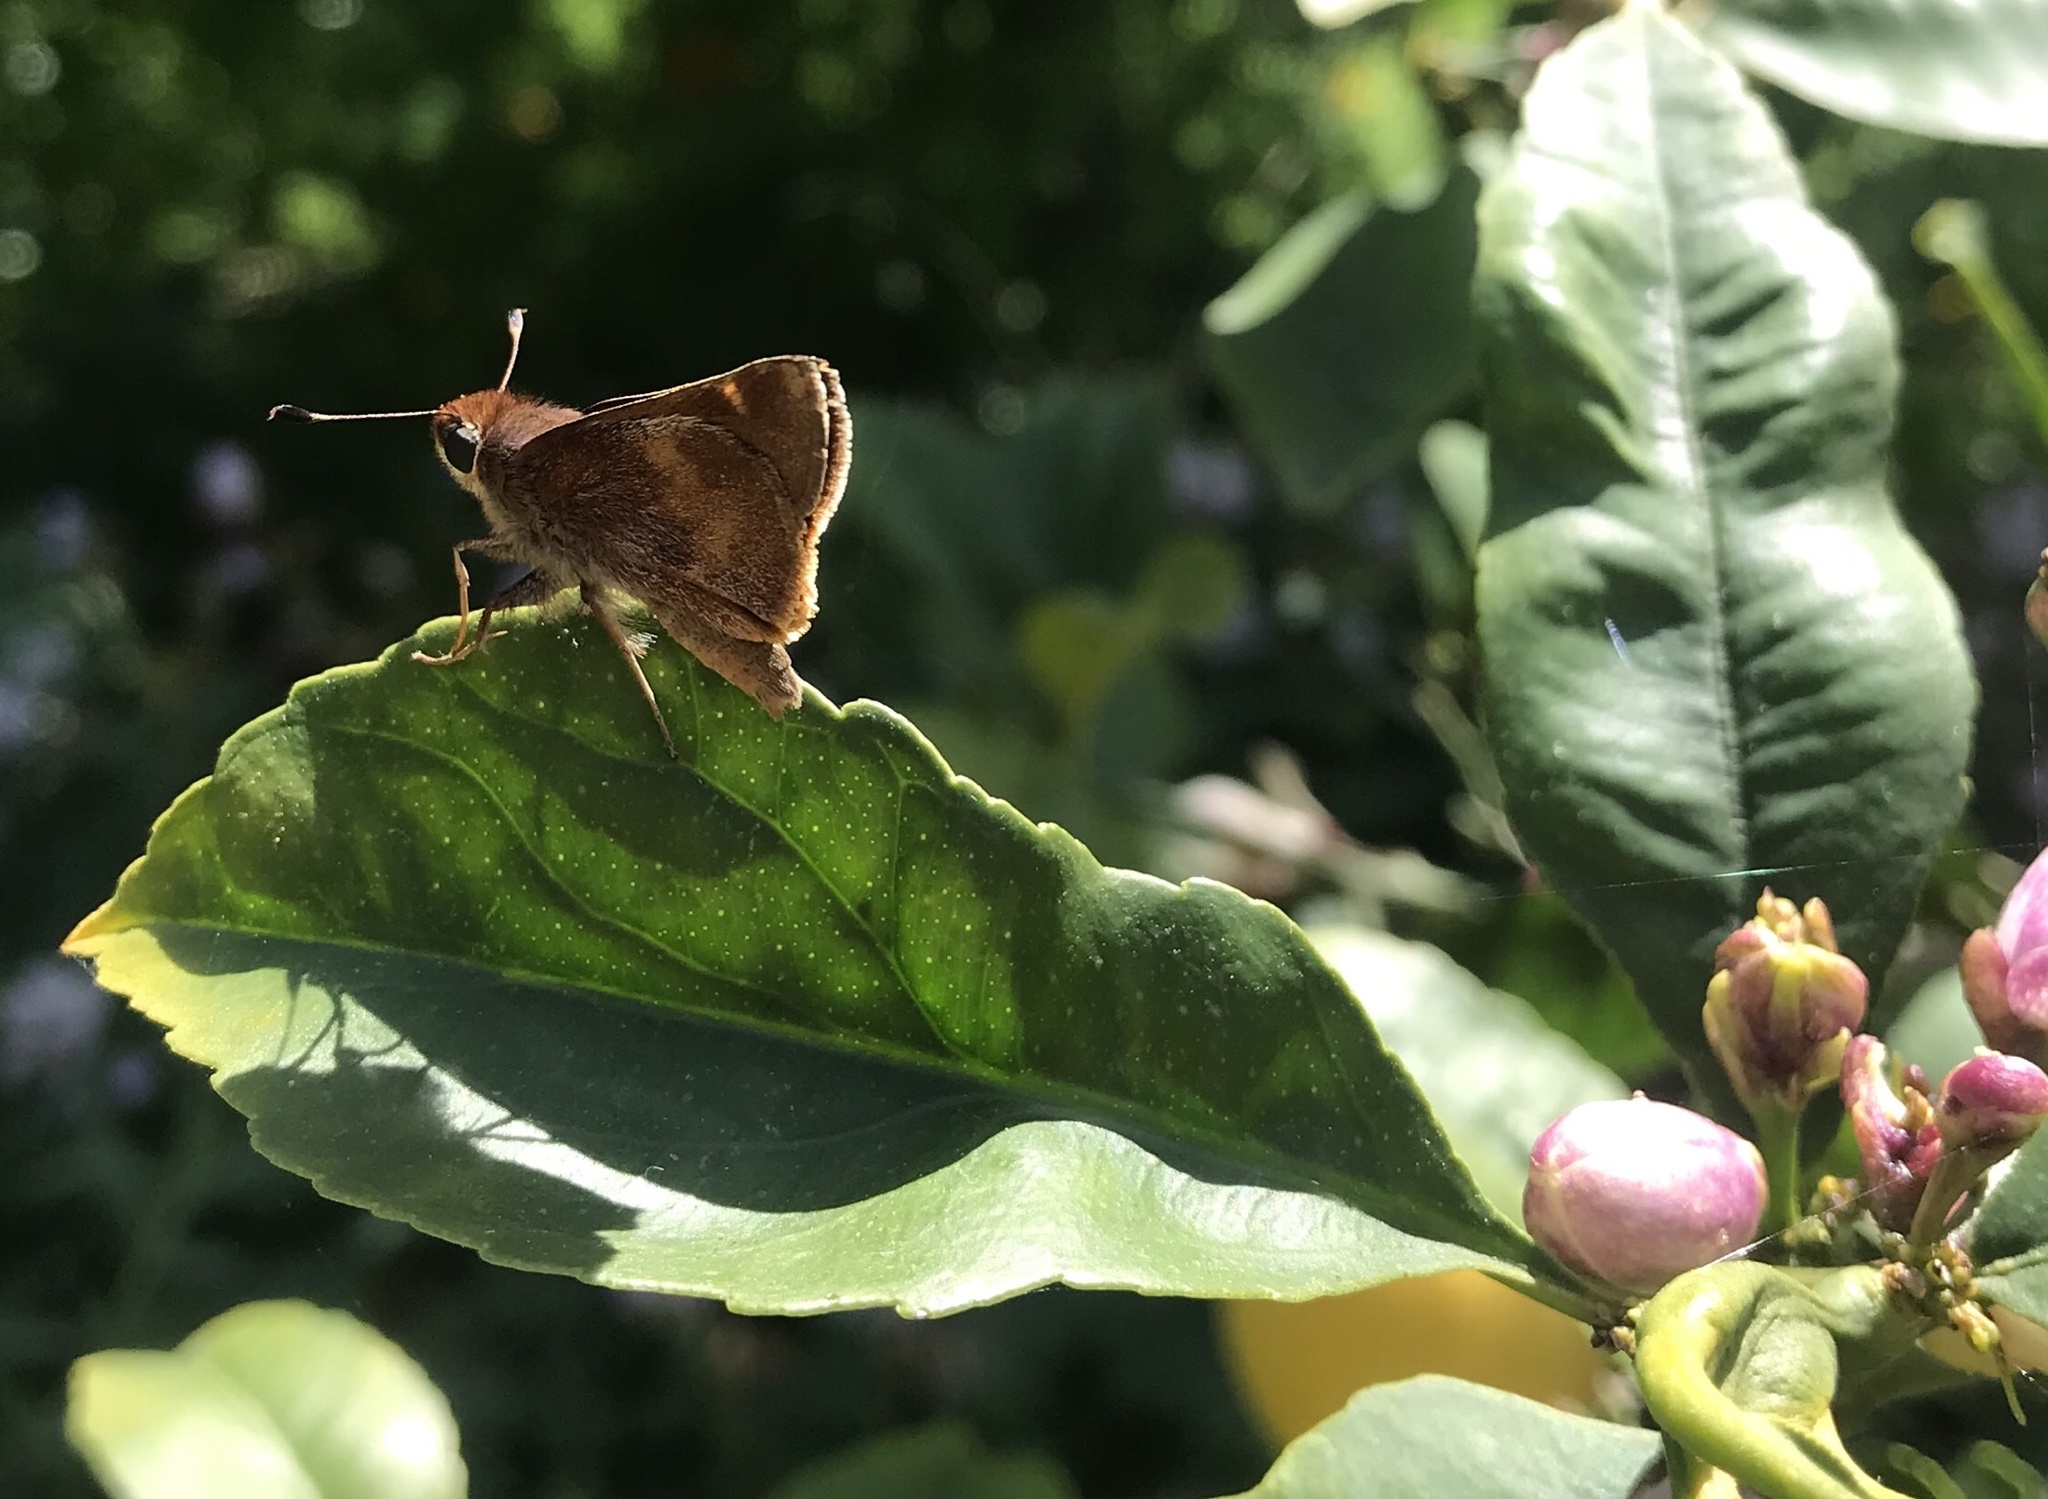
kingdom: Animalia
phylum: Arthropoda
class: Insecta
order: Lepidoptera
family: Hesperiidae
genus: Lon
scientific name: Lon melane
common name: Umber skipper
